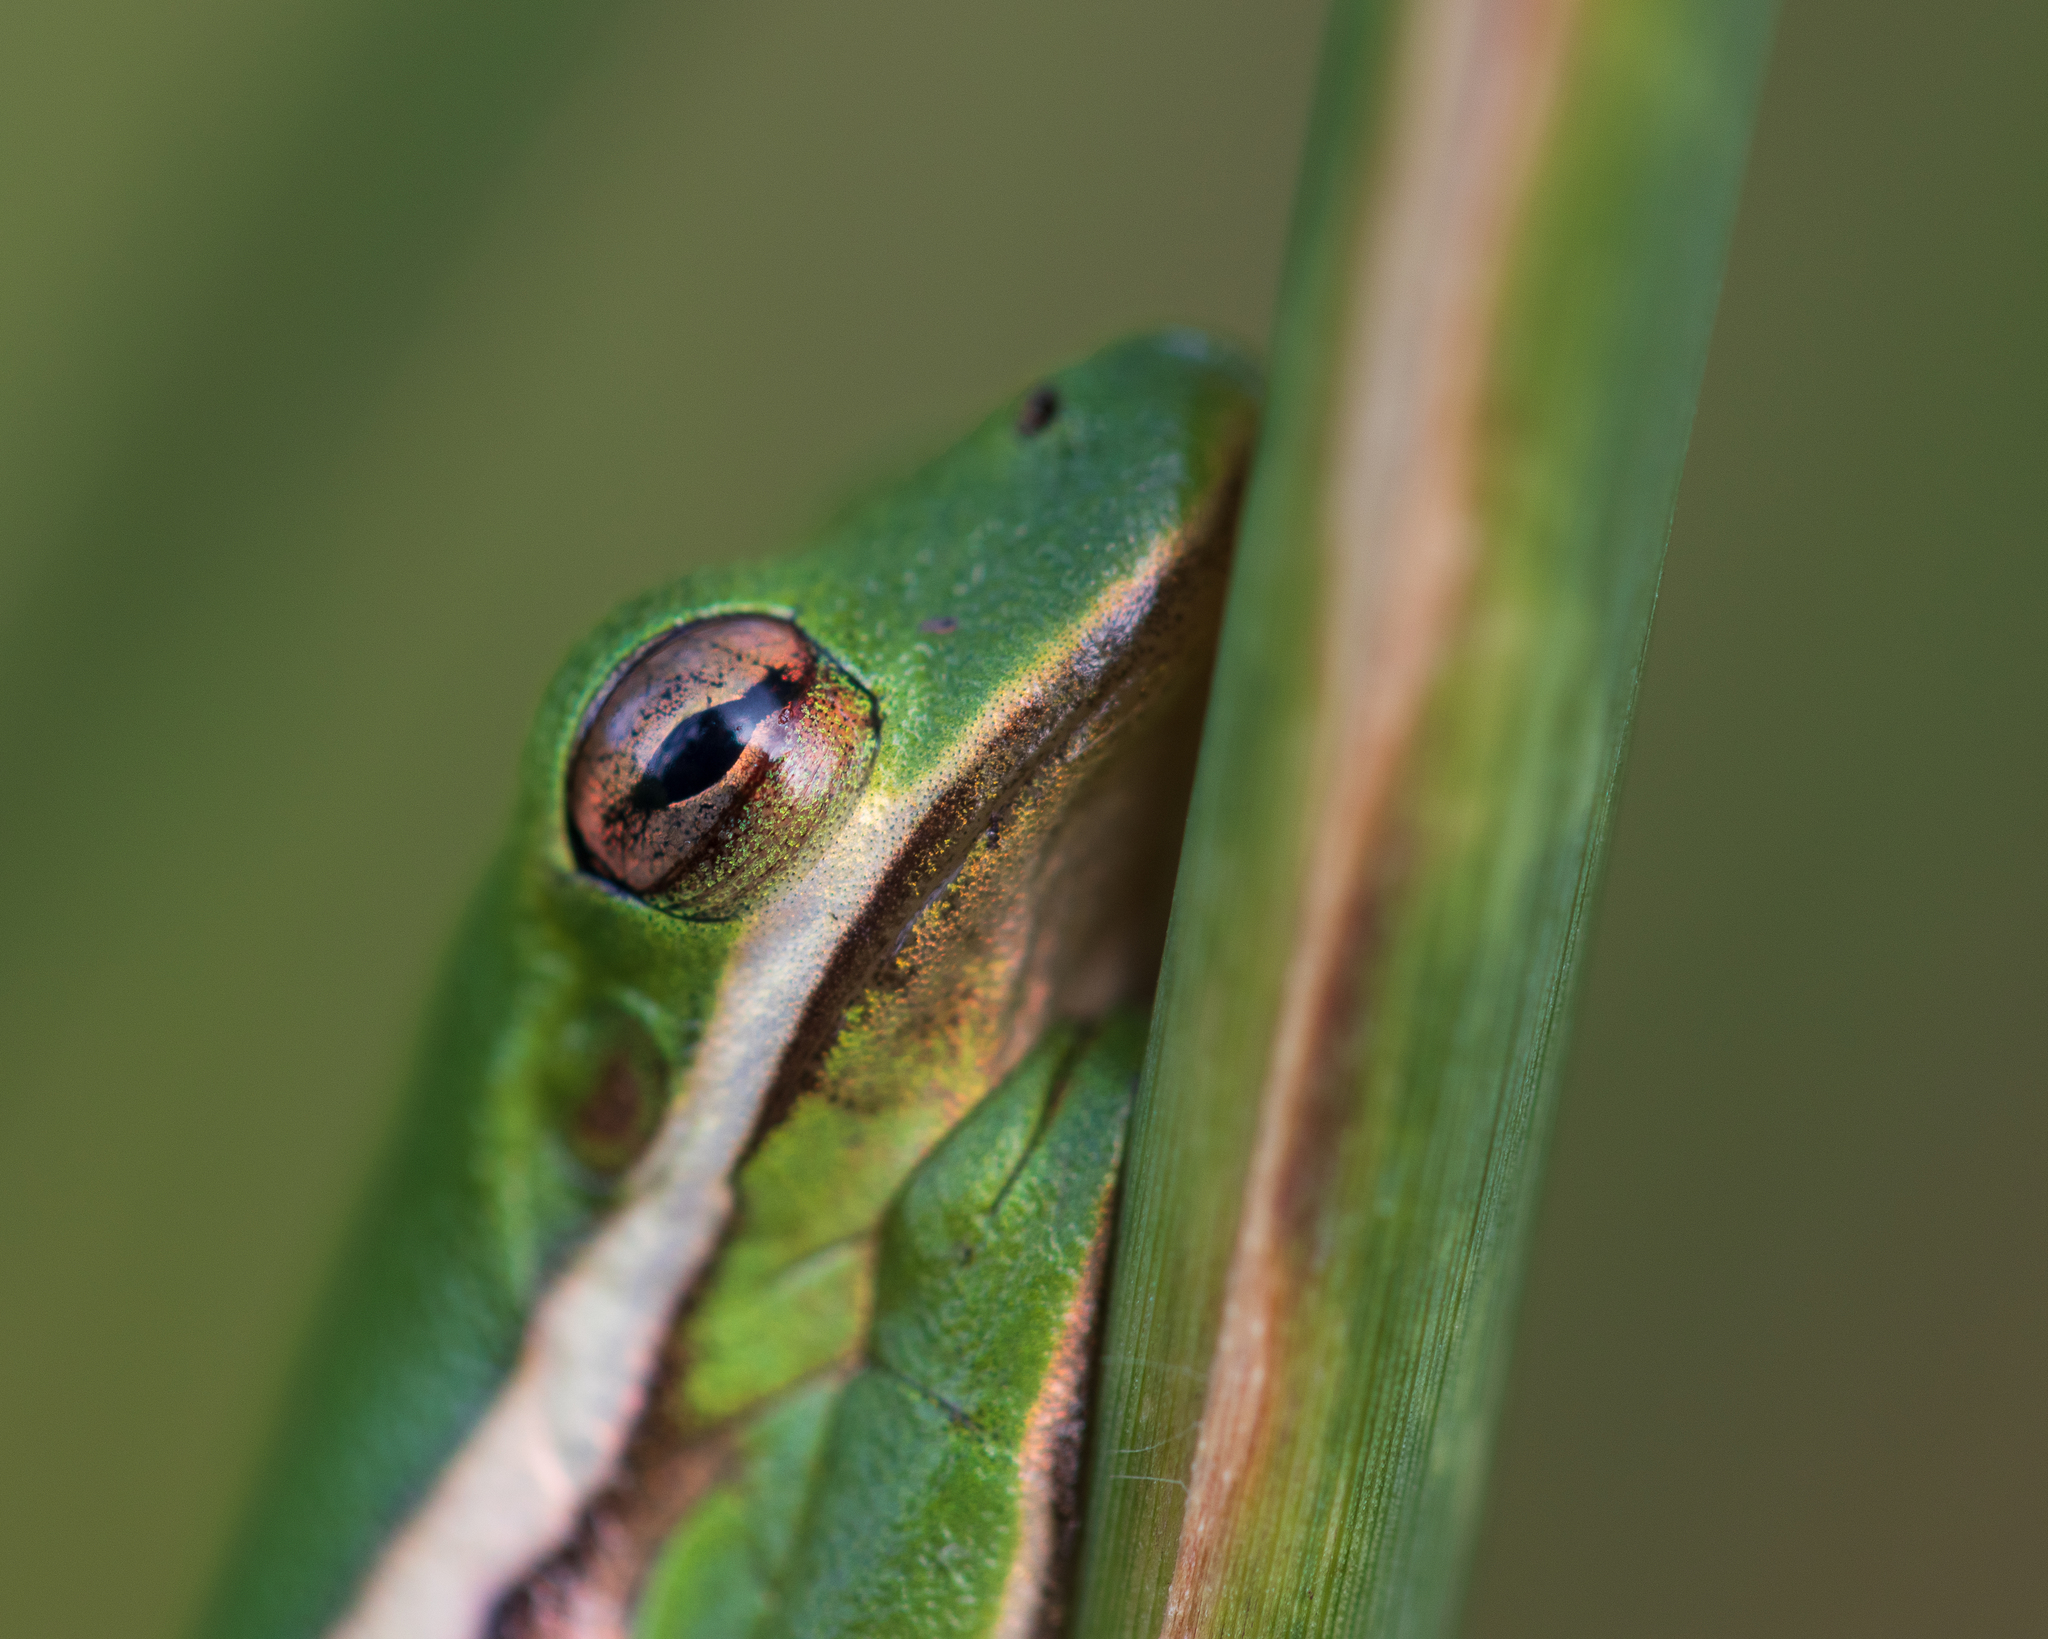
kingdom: Animalia
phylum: Chordata
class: Amphibia
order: Anura
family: Hylidae
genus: Dryophytes
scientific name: Dryophytes cinereus
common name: Green treefrog
